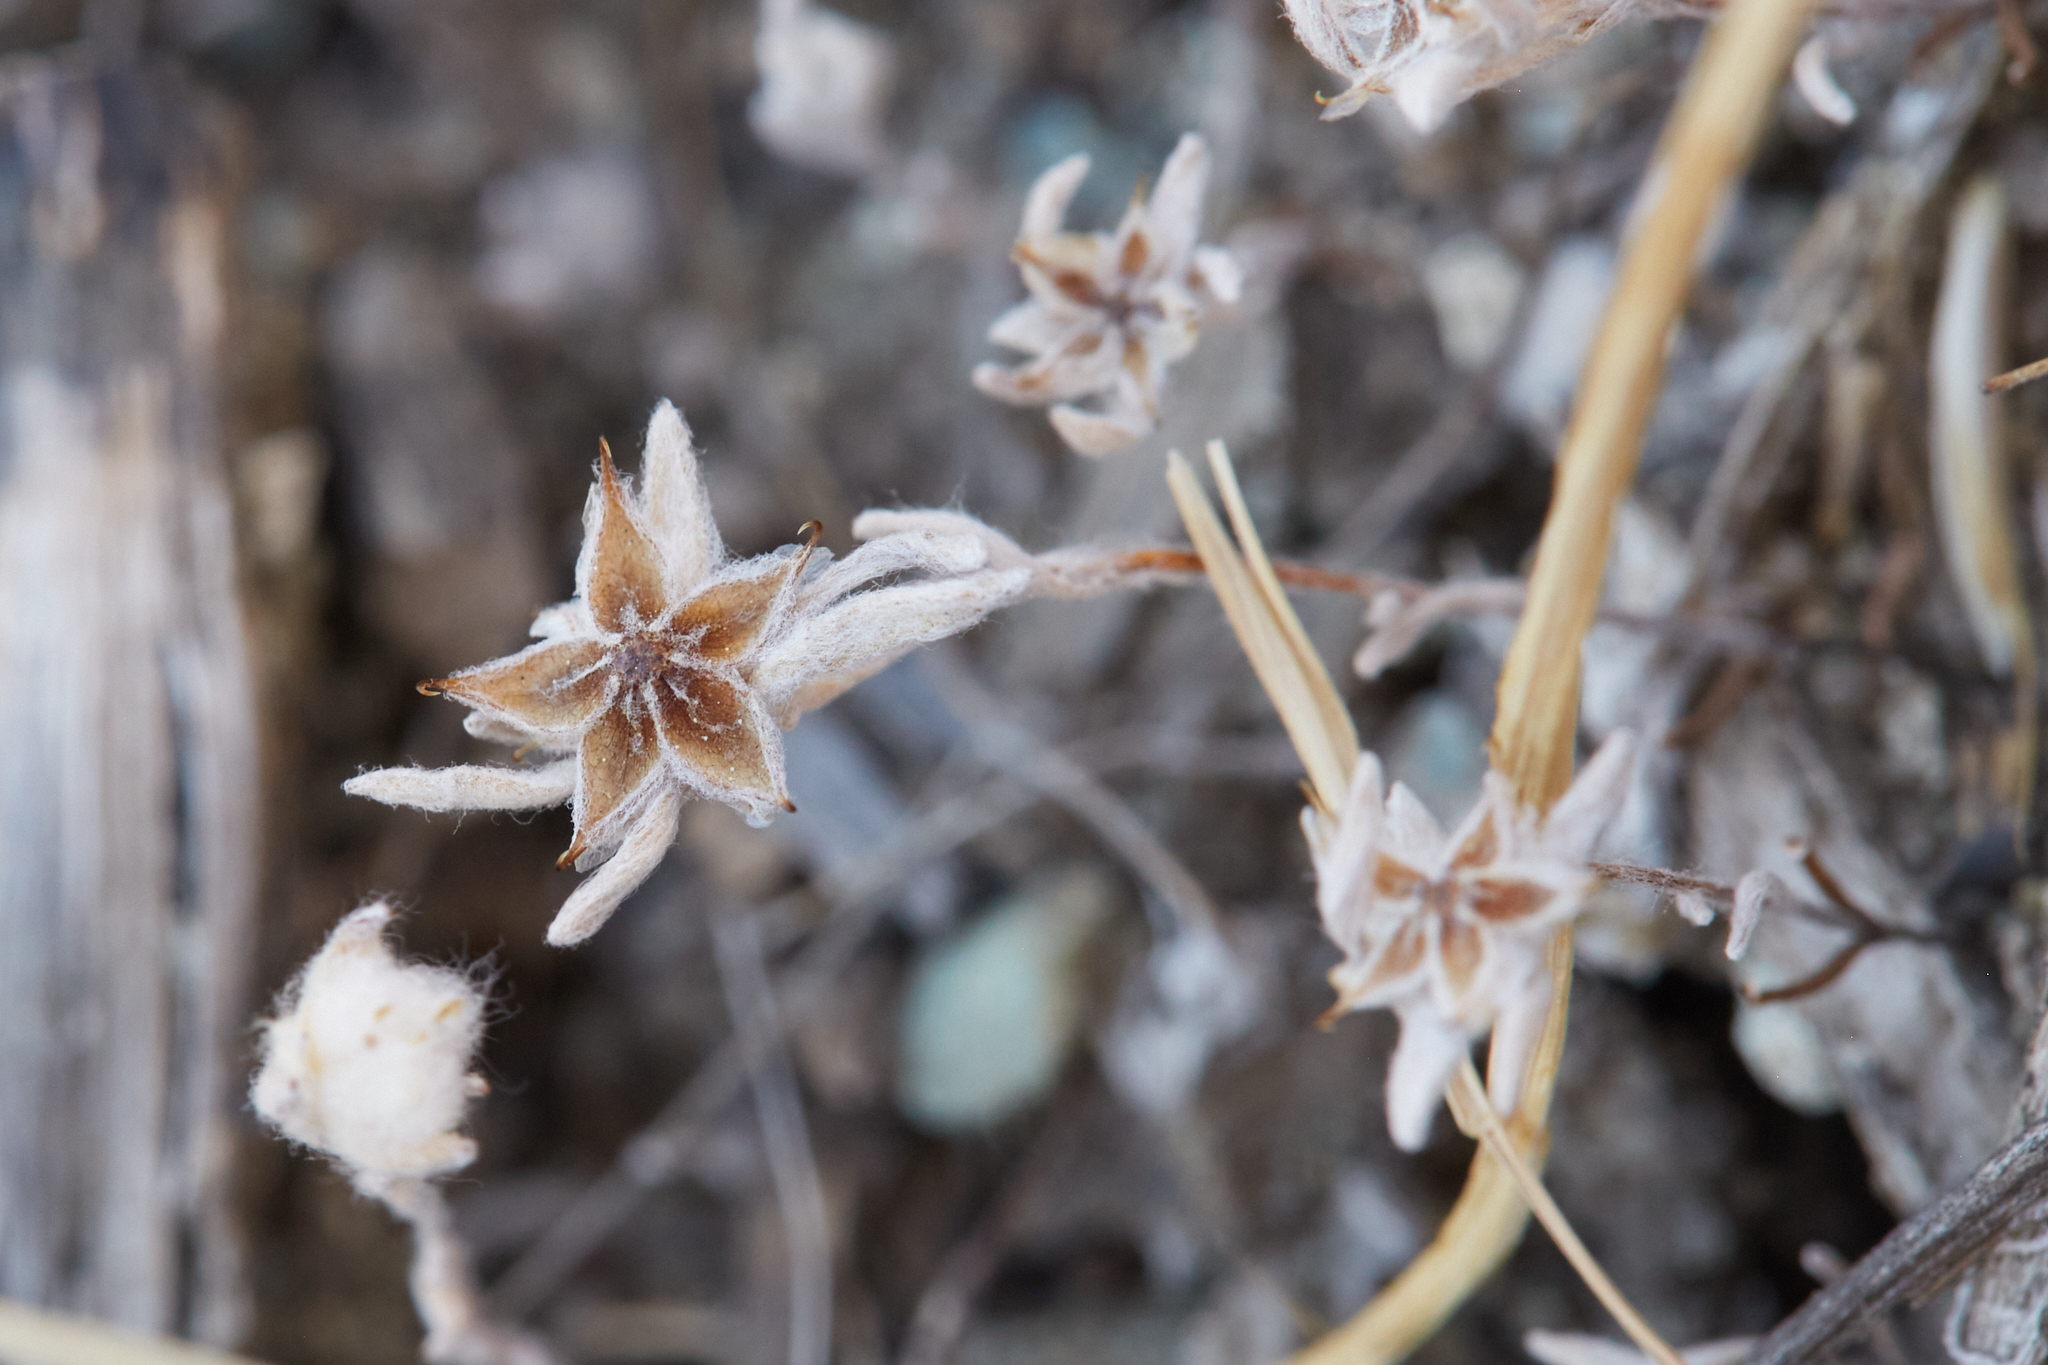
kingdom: Plantae
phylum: Tracheophyta
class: Magnoliopsida
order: Asterales
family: Asteraceae
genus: Ancistrocarphus
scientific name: Ancistrocarphus filagineus
